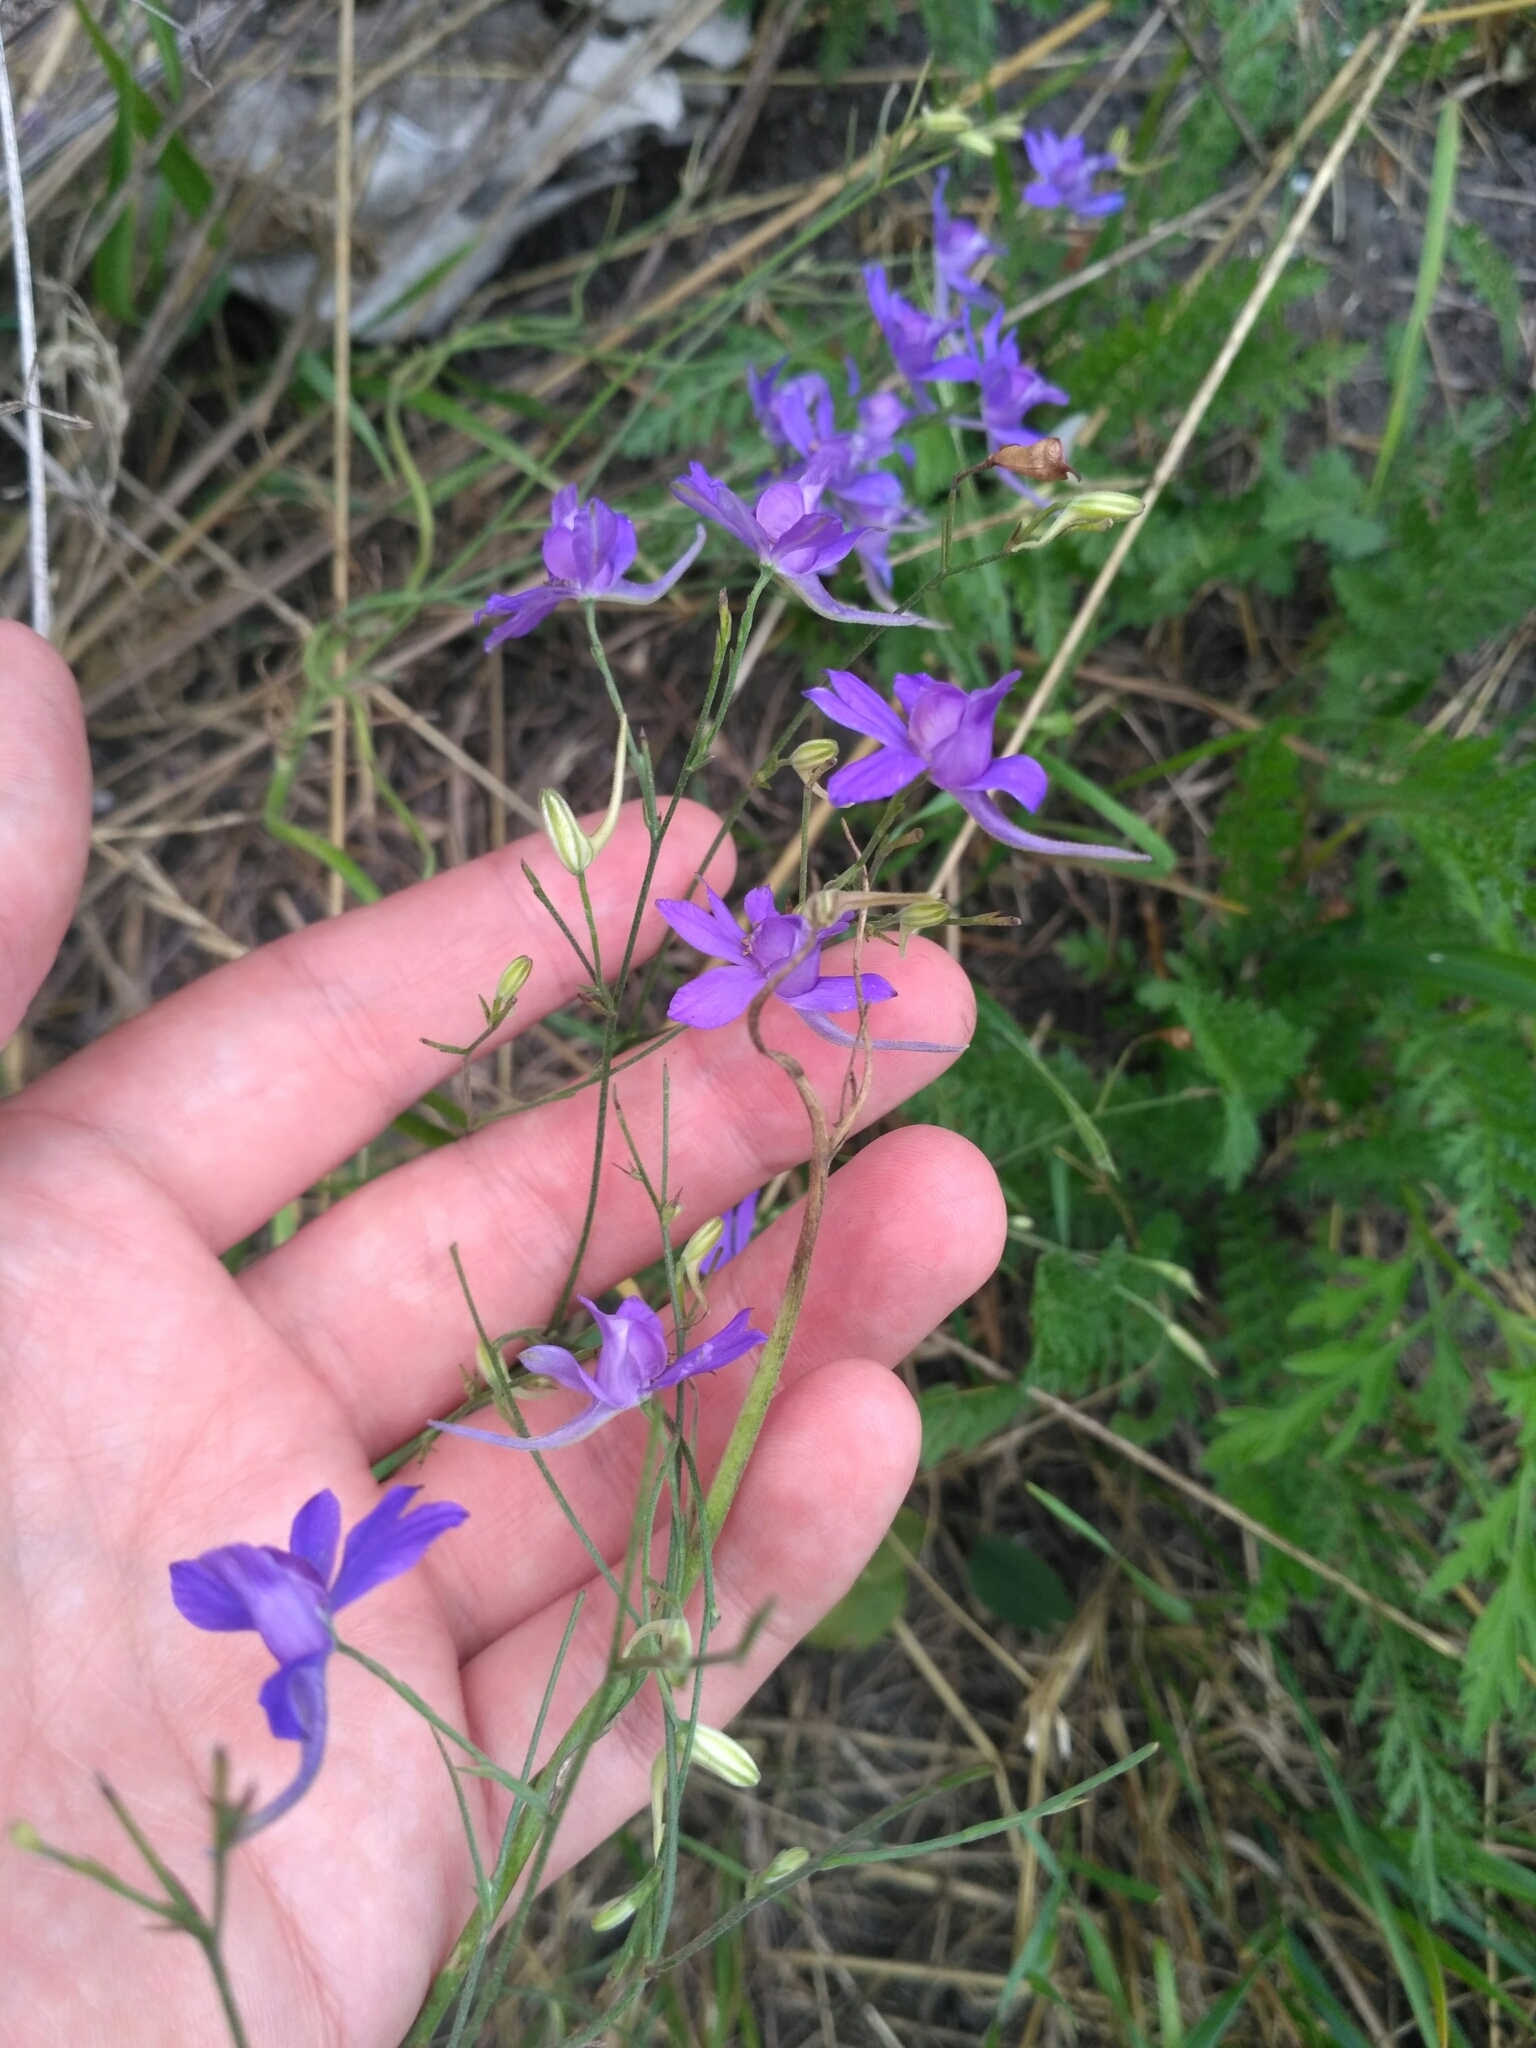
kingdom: Plantae
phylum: Tracheophyta
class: Magnoliopsida
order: Ranunculales
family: Ranunculaceae
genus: Delphinium
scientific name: Delphinium consolida
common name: Branching larkspur
